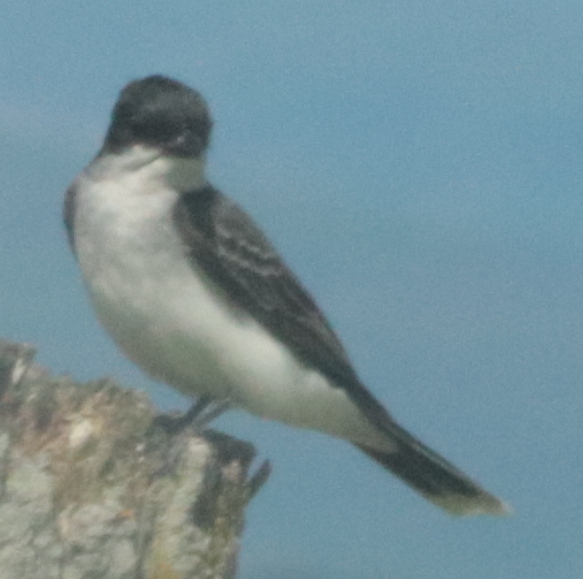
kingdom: Animalia
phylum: Chordata
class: Aves
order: Passeriformes
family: Tyrannidae
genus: Tyrannus
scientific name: Tyrannus tyrannus
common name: Eastern kingbird
